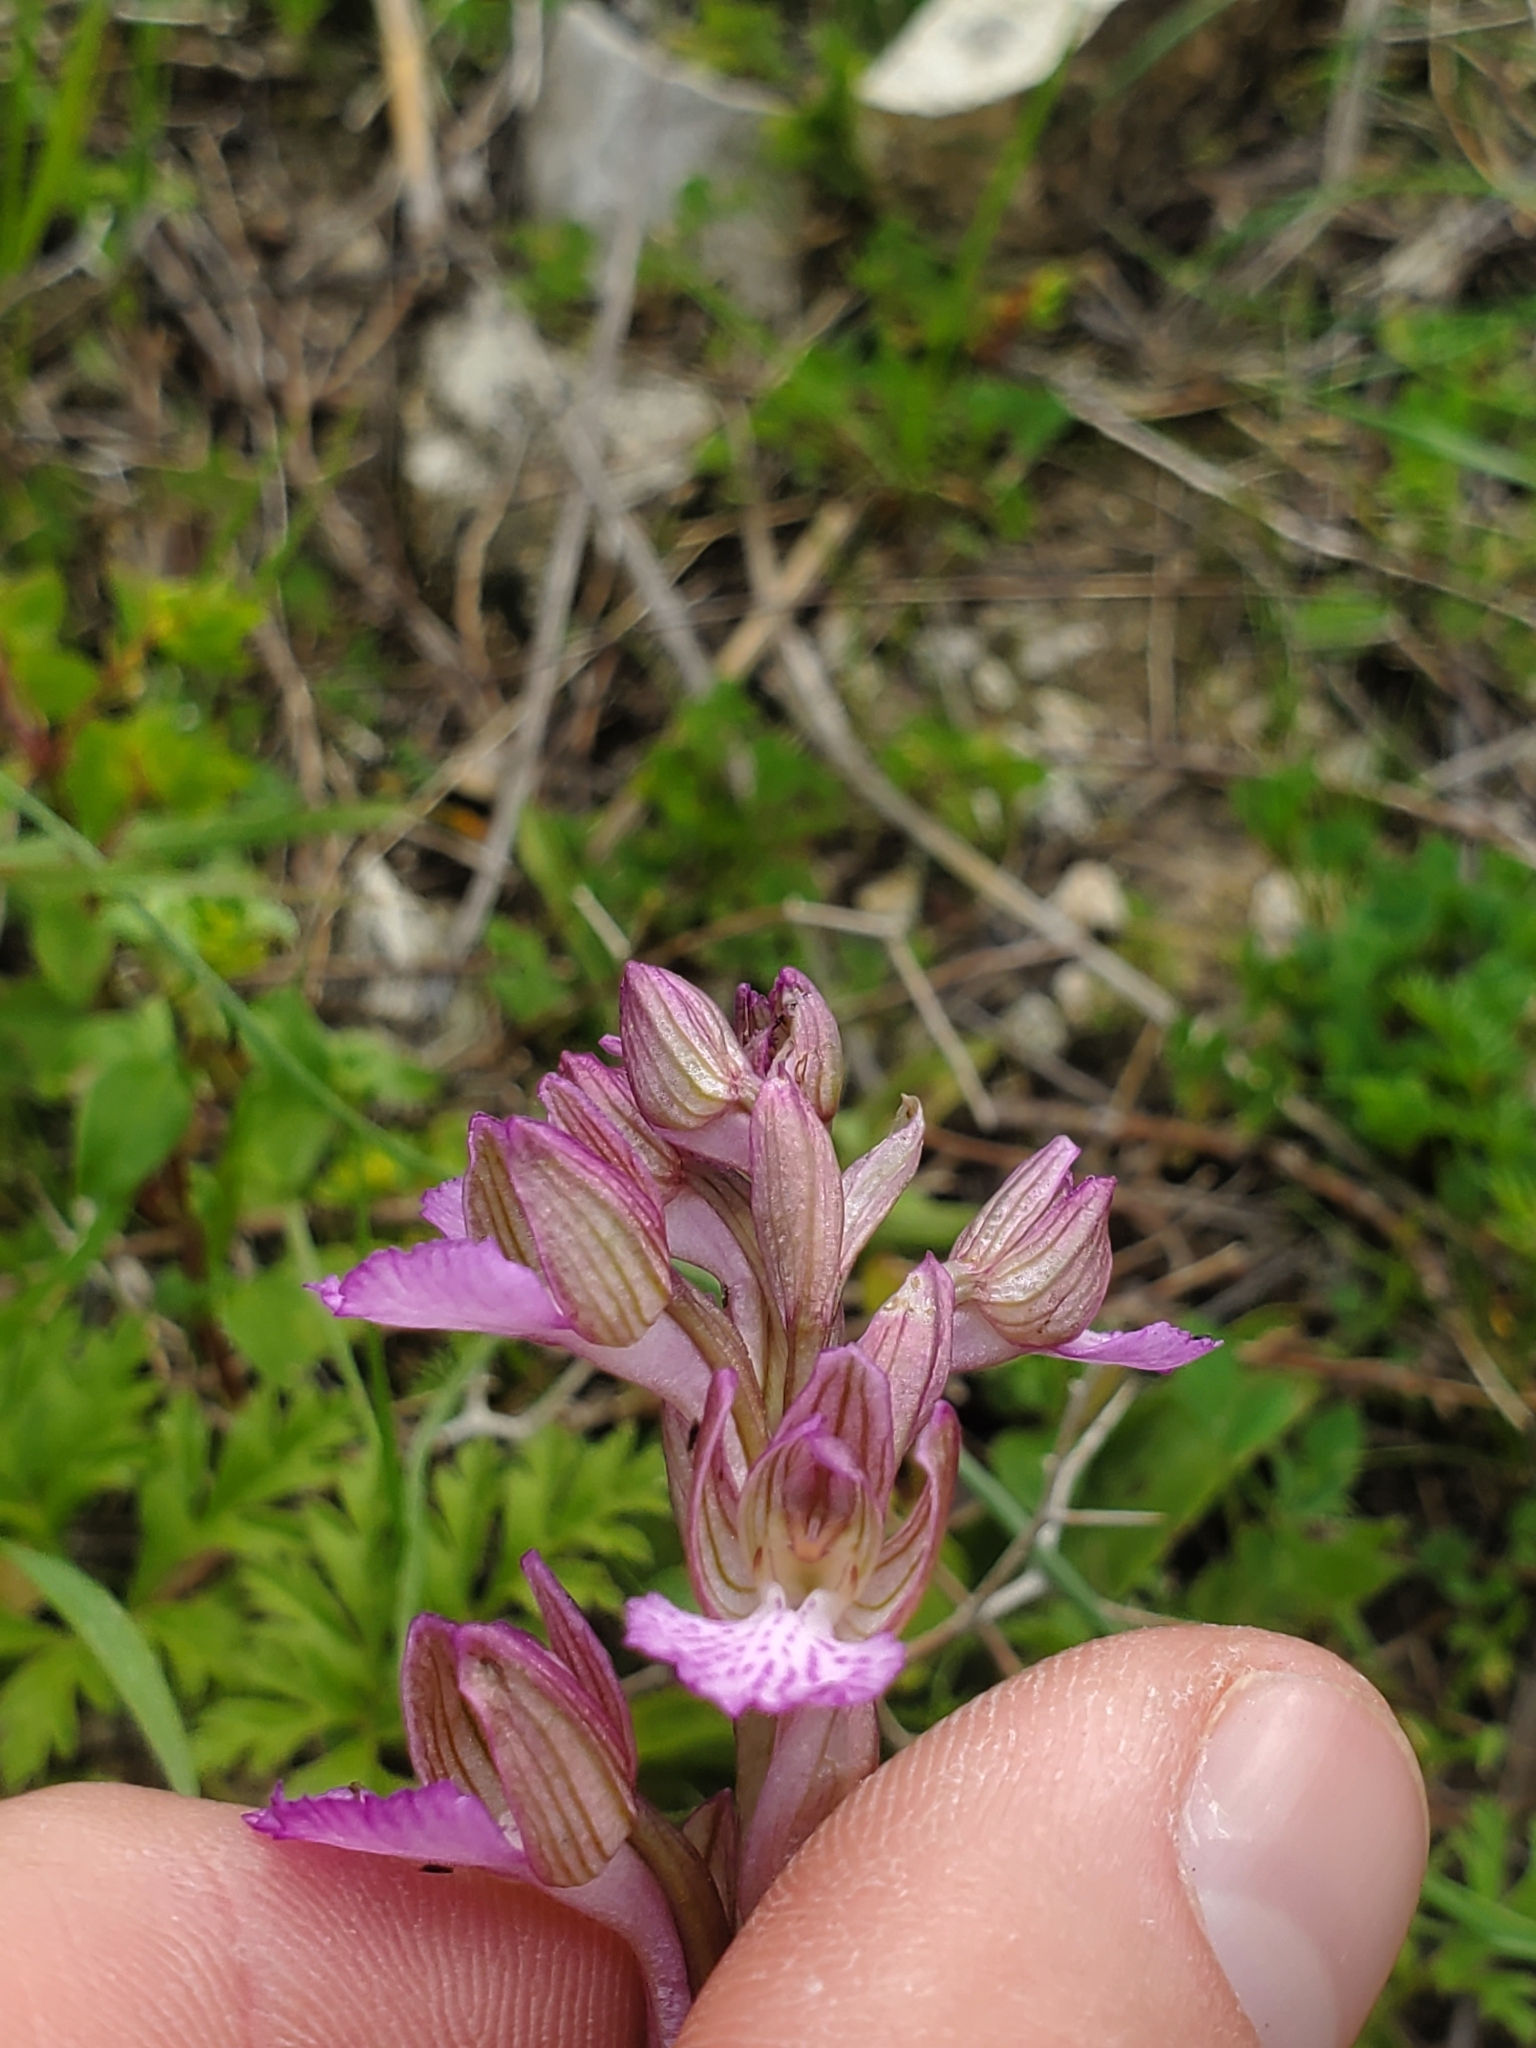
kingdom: Plantae
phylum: Tracheophyta
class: Liliopsida
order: Asparagales
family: Orchidaceae
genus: Anacamptis
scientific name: Anacamptis papilionacea
